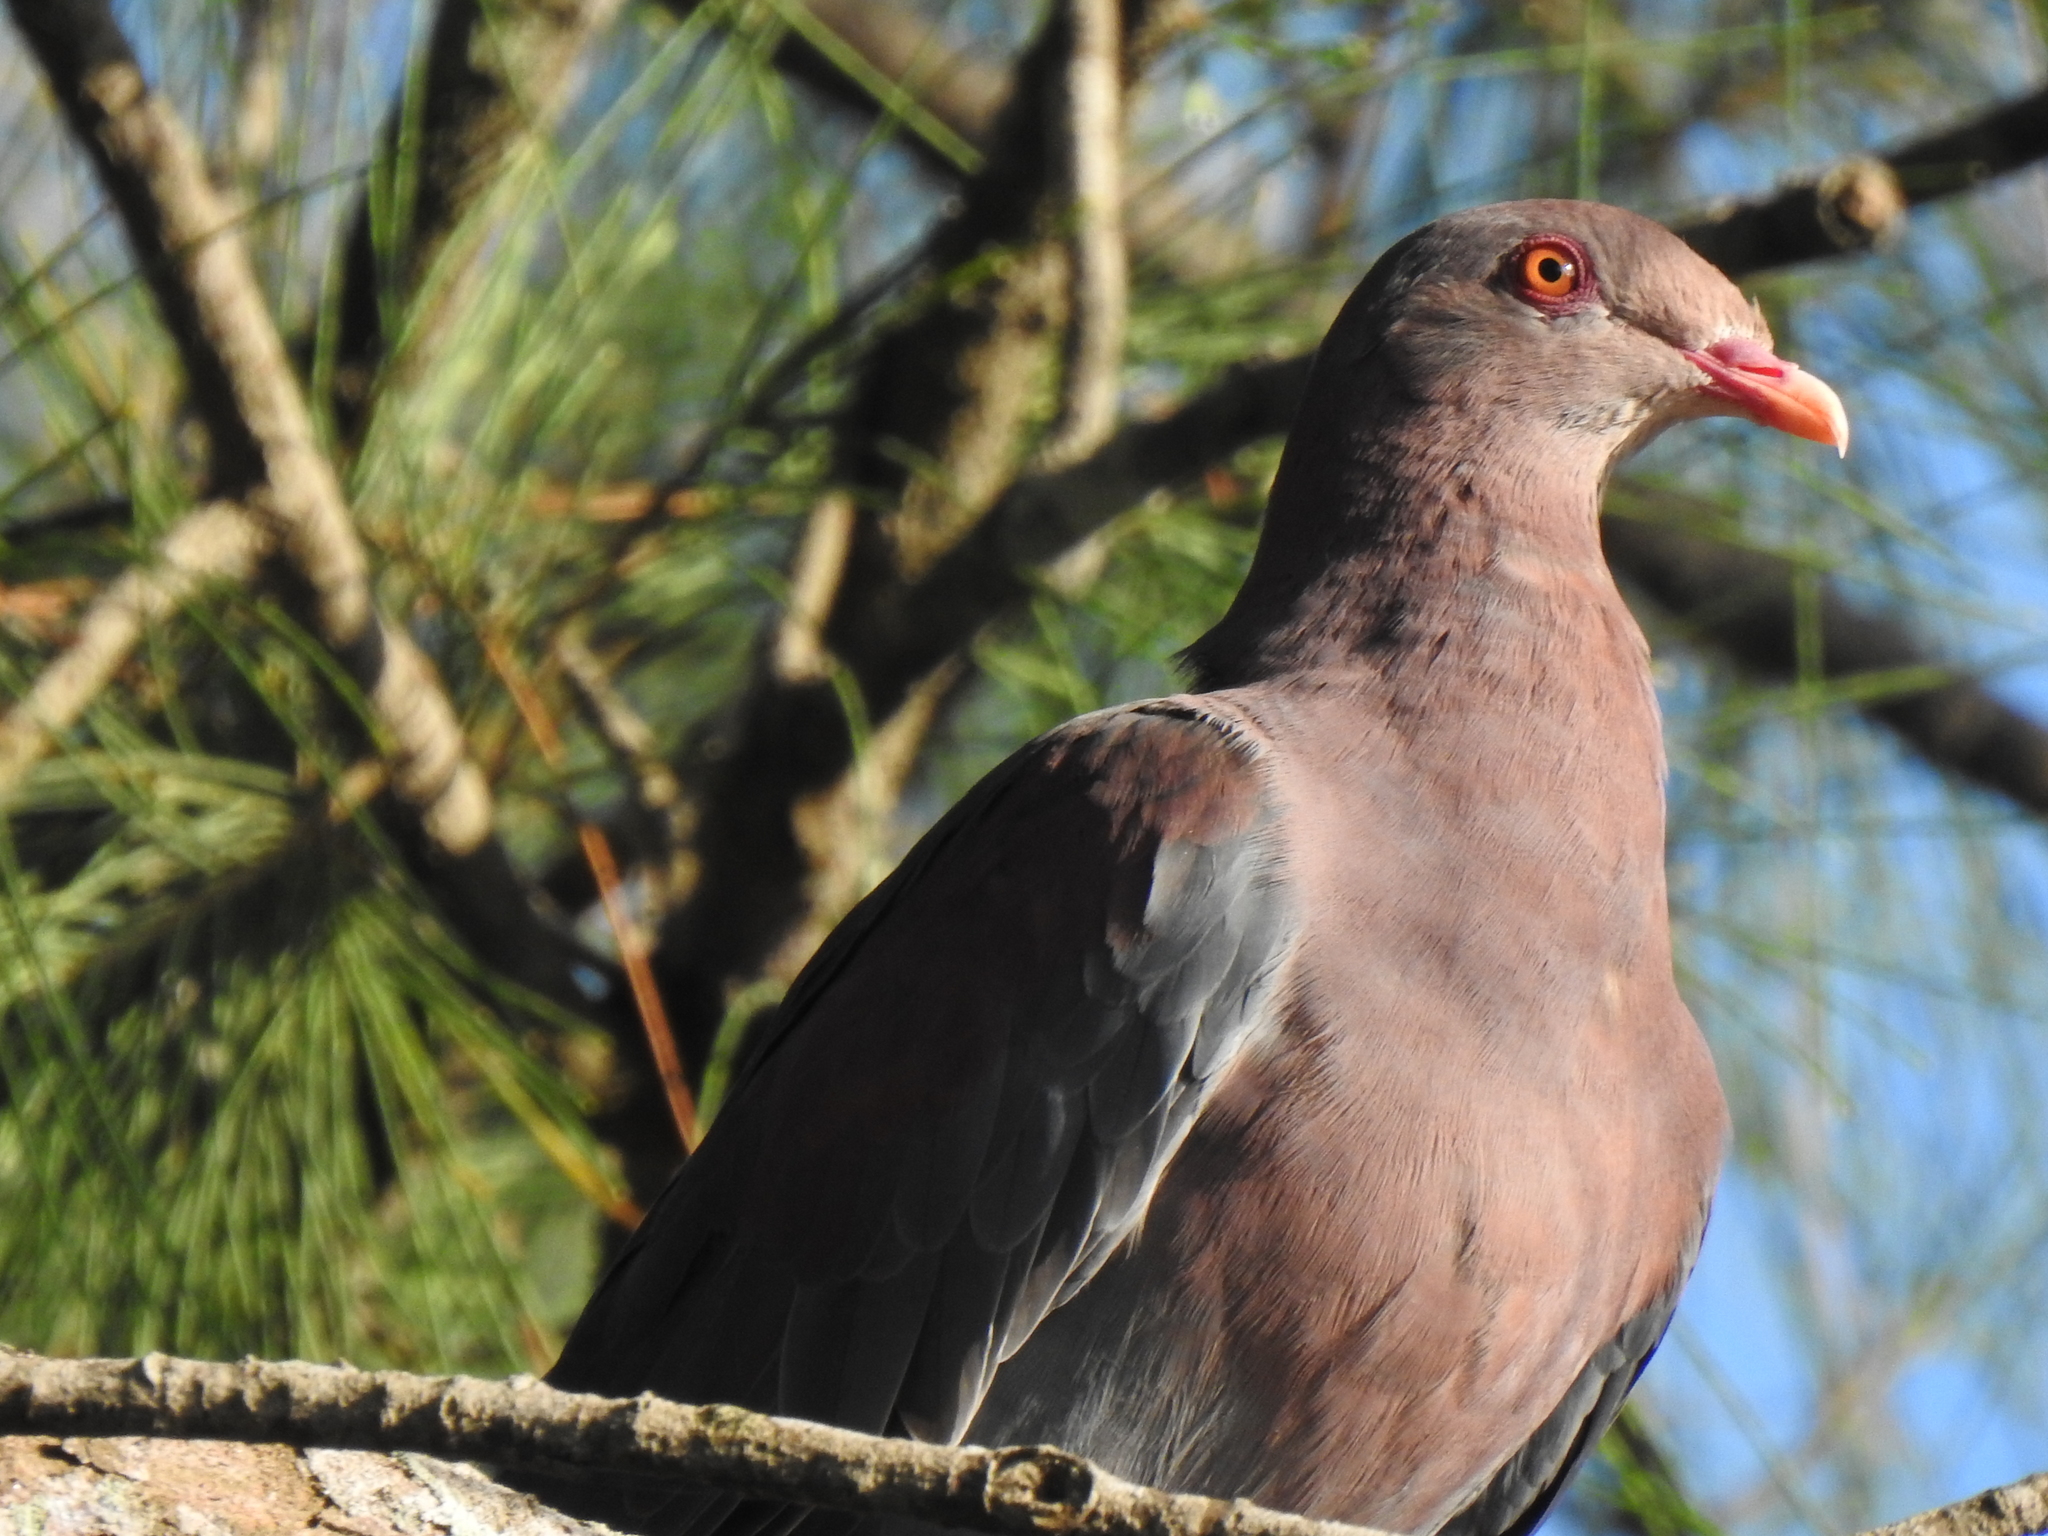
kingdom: Animalia
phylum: Chordata
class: Aves
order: Columbiformes
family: Columbidae
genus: Patagioenas
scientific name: Patagioenas flavirostris
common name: Red-billed pigeon
